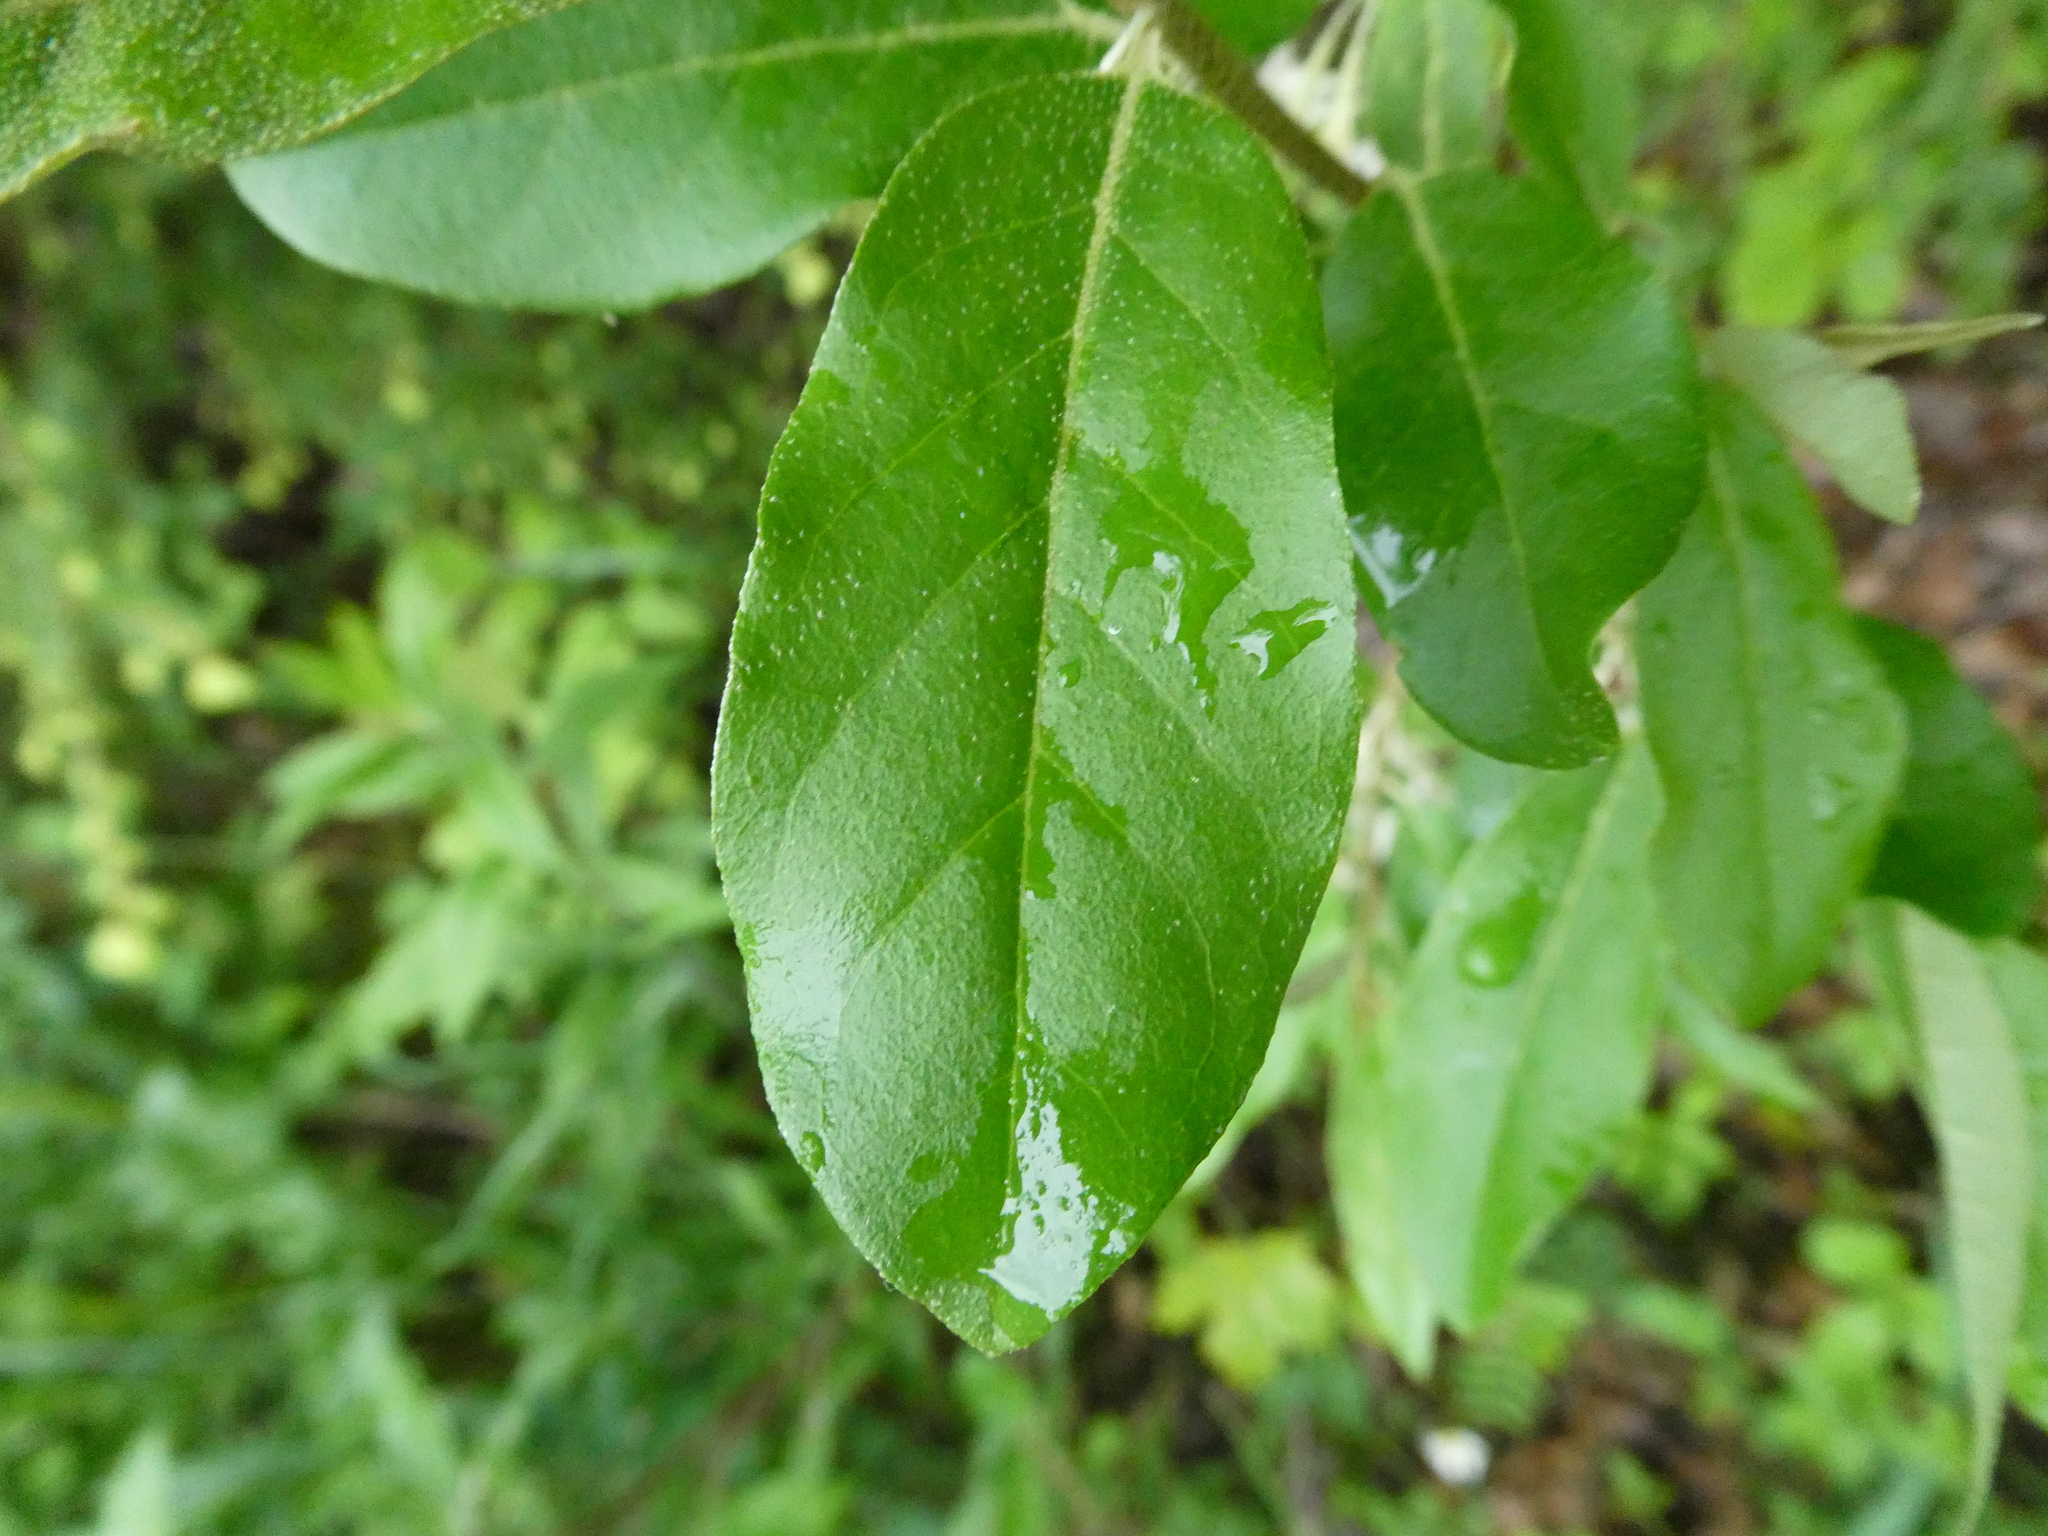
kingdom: Plantae
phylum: Tracheophyta
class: Magnoliopsida
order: Rosales
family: Elaeagnaceae
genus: Elaeagnus
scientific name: Elaeagnus umbellata
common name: Autumn olive
